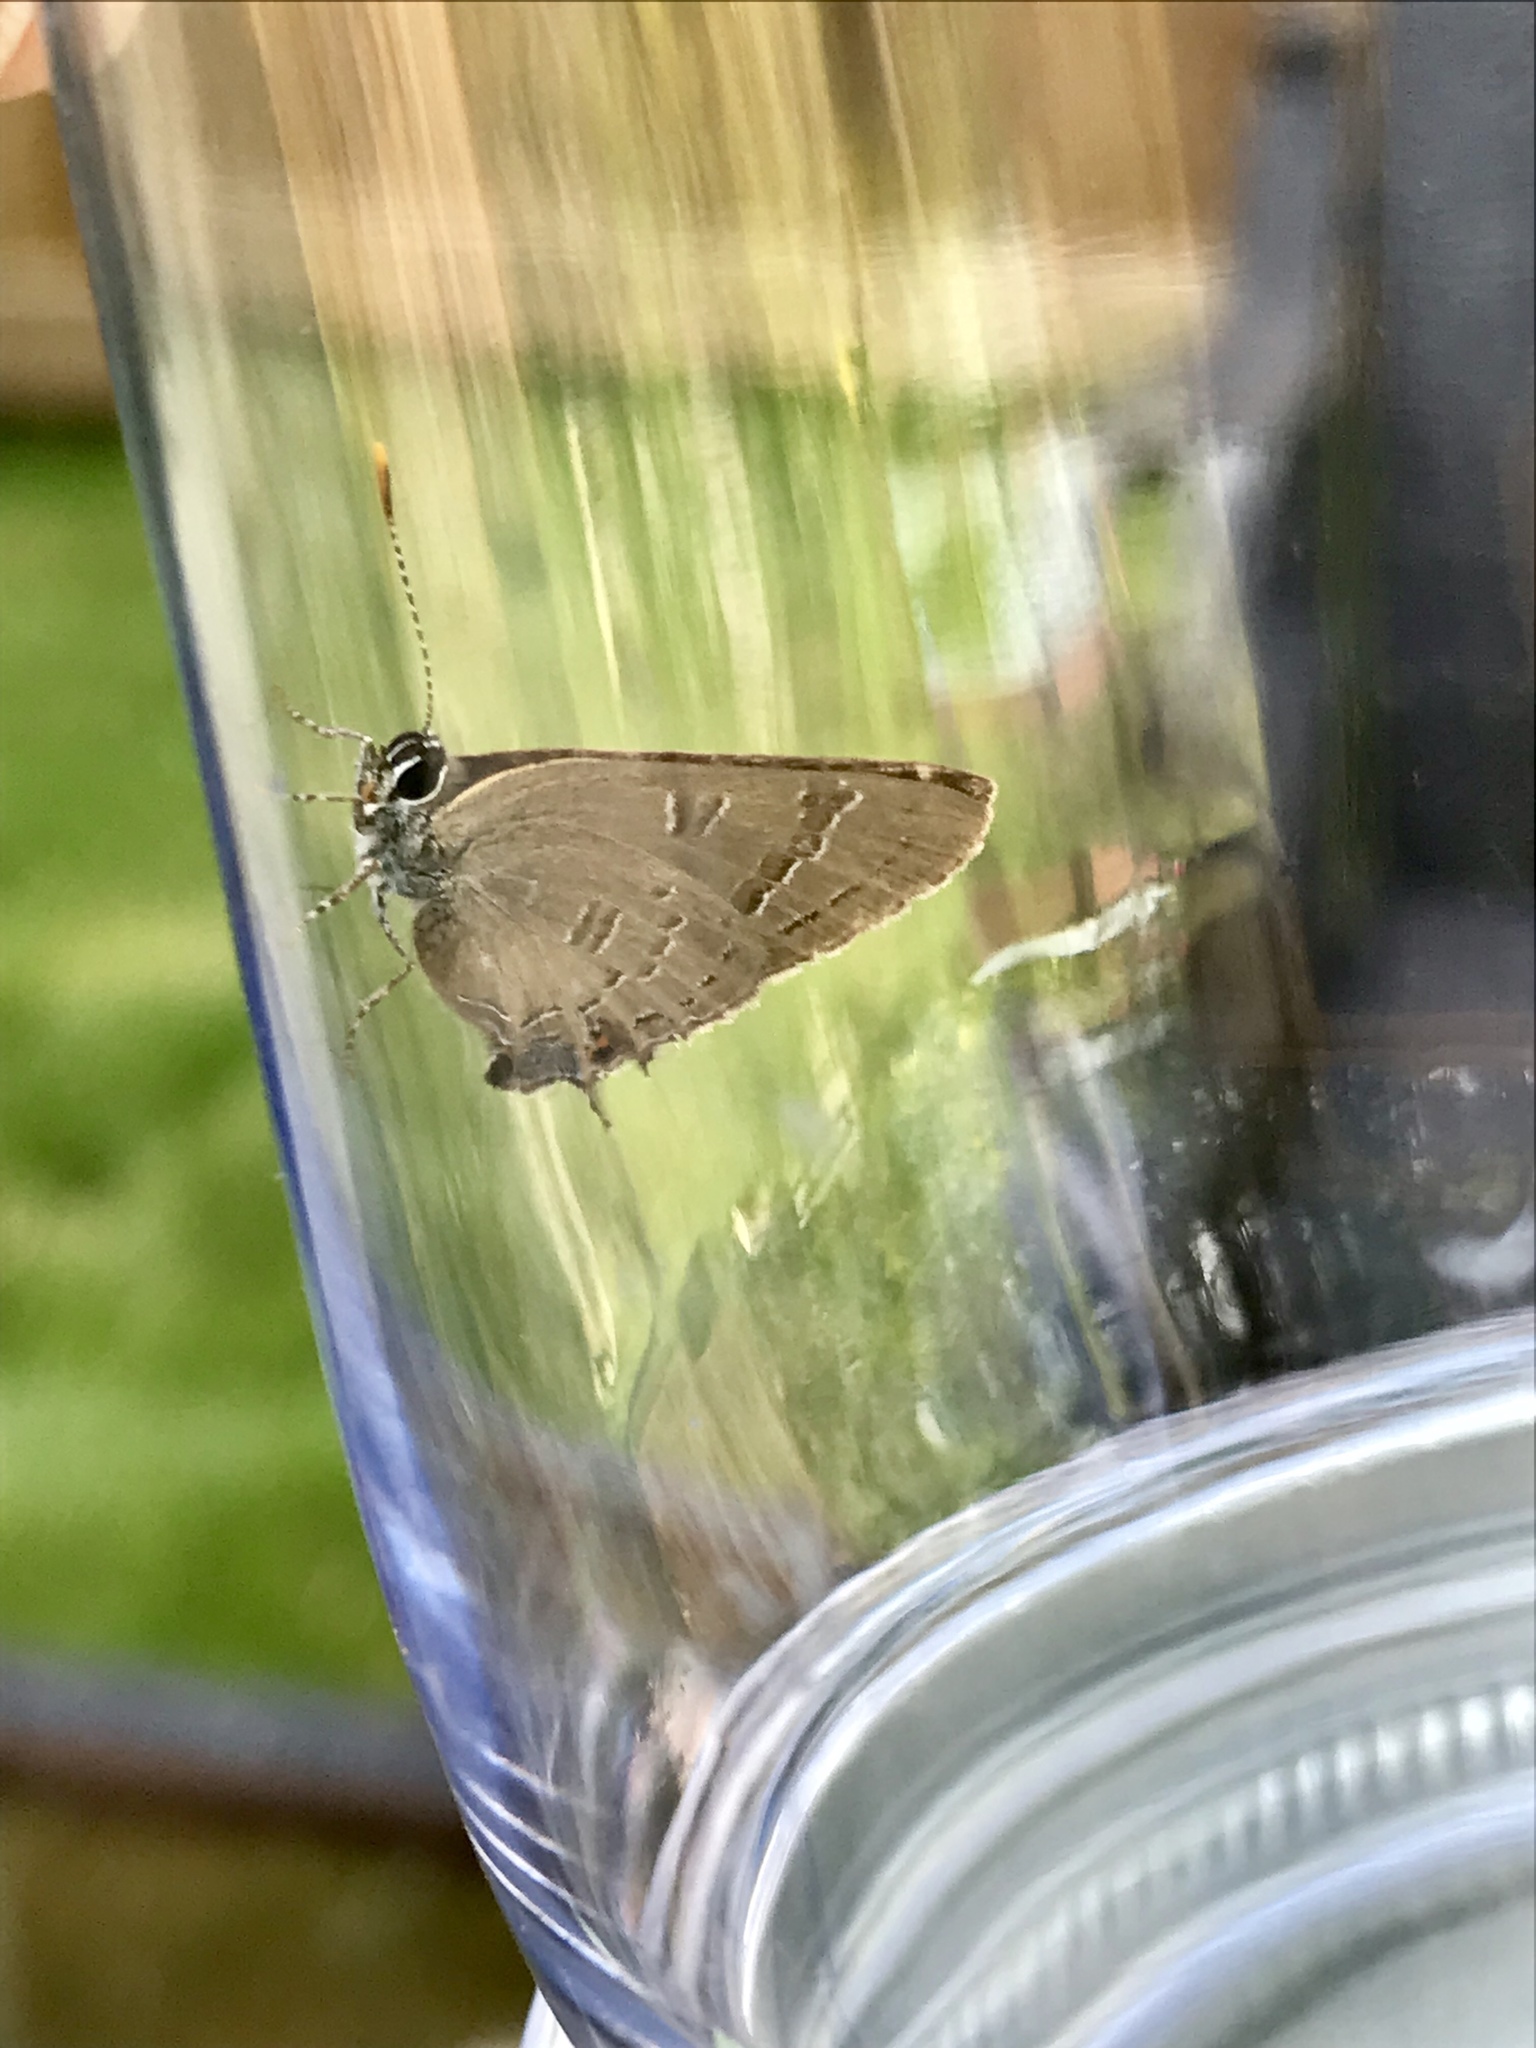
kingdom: Animalia
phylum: Arthropoda
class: Insecta
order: Lepidoptera
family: Lycaenidae
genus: Satyrium
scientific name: Satyrium calanus
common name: Banded hairstreak
